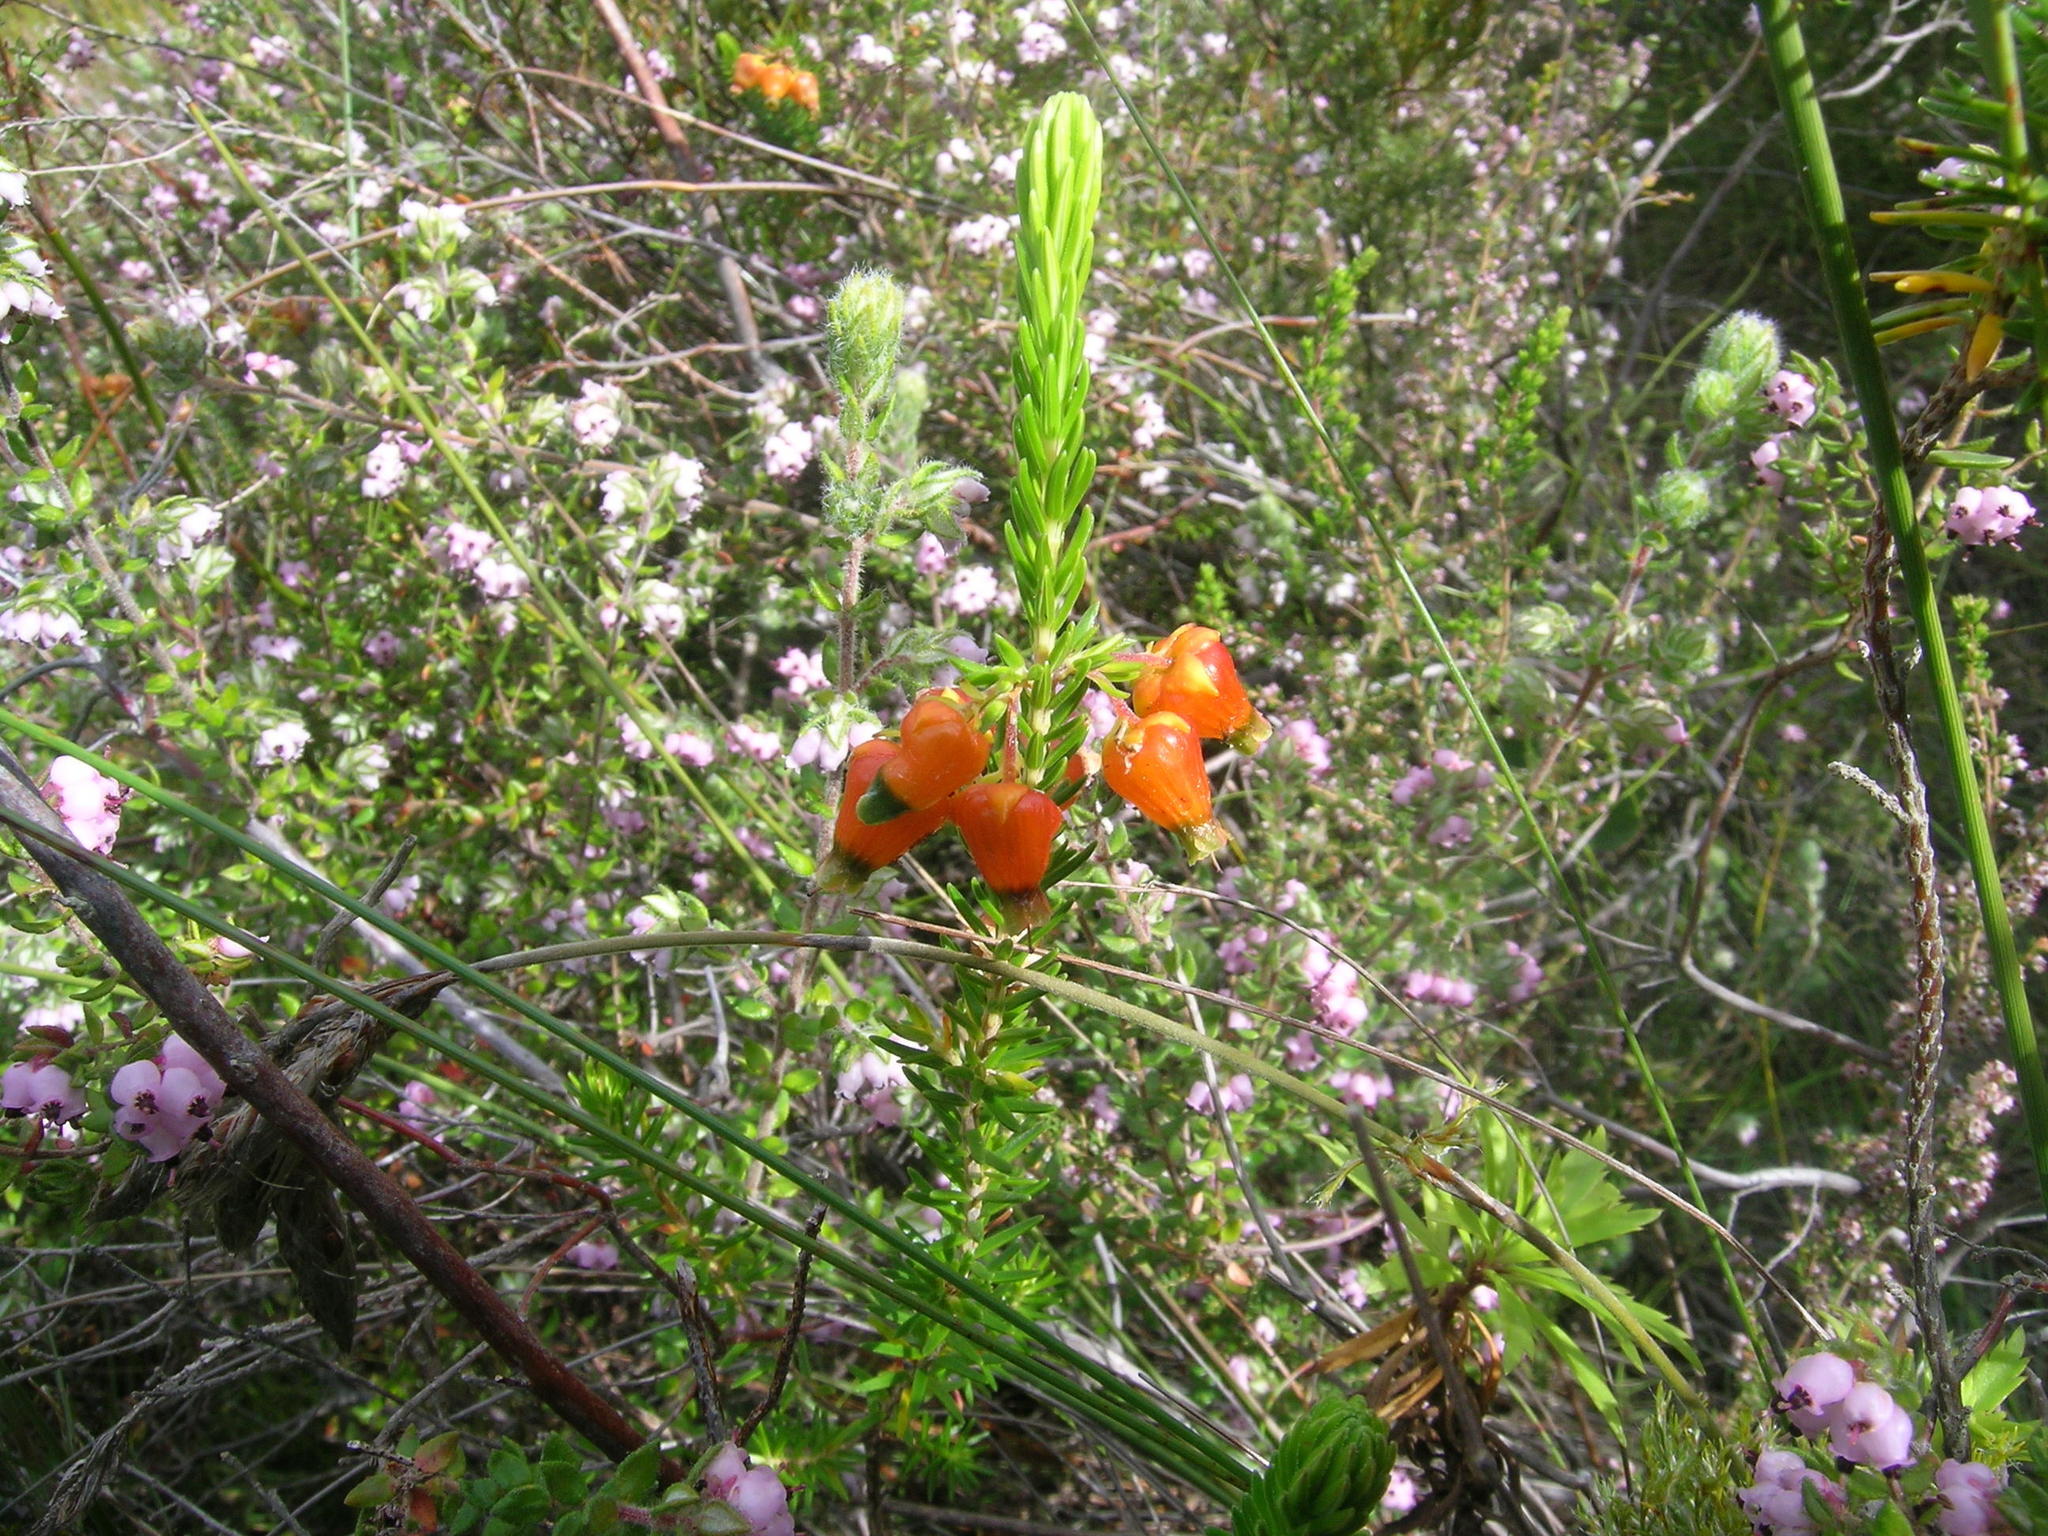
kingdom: Plantae
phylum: Tracheophyta
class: Magnoliopsida
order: Ericales
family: Ericaceae
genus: Erica
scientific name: Erica blenna
